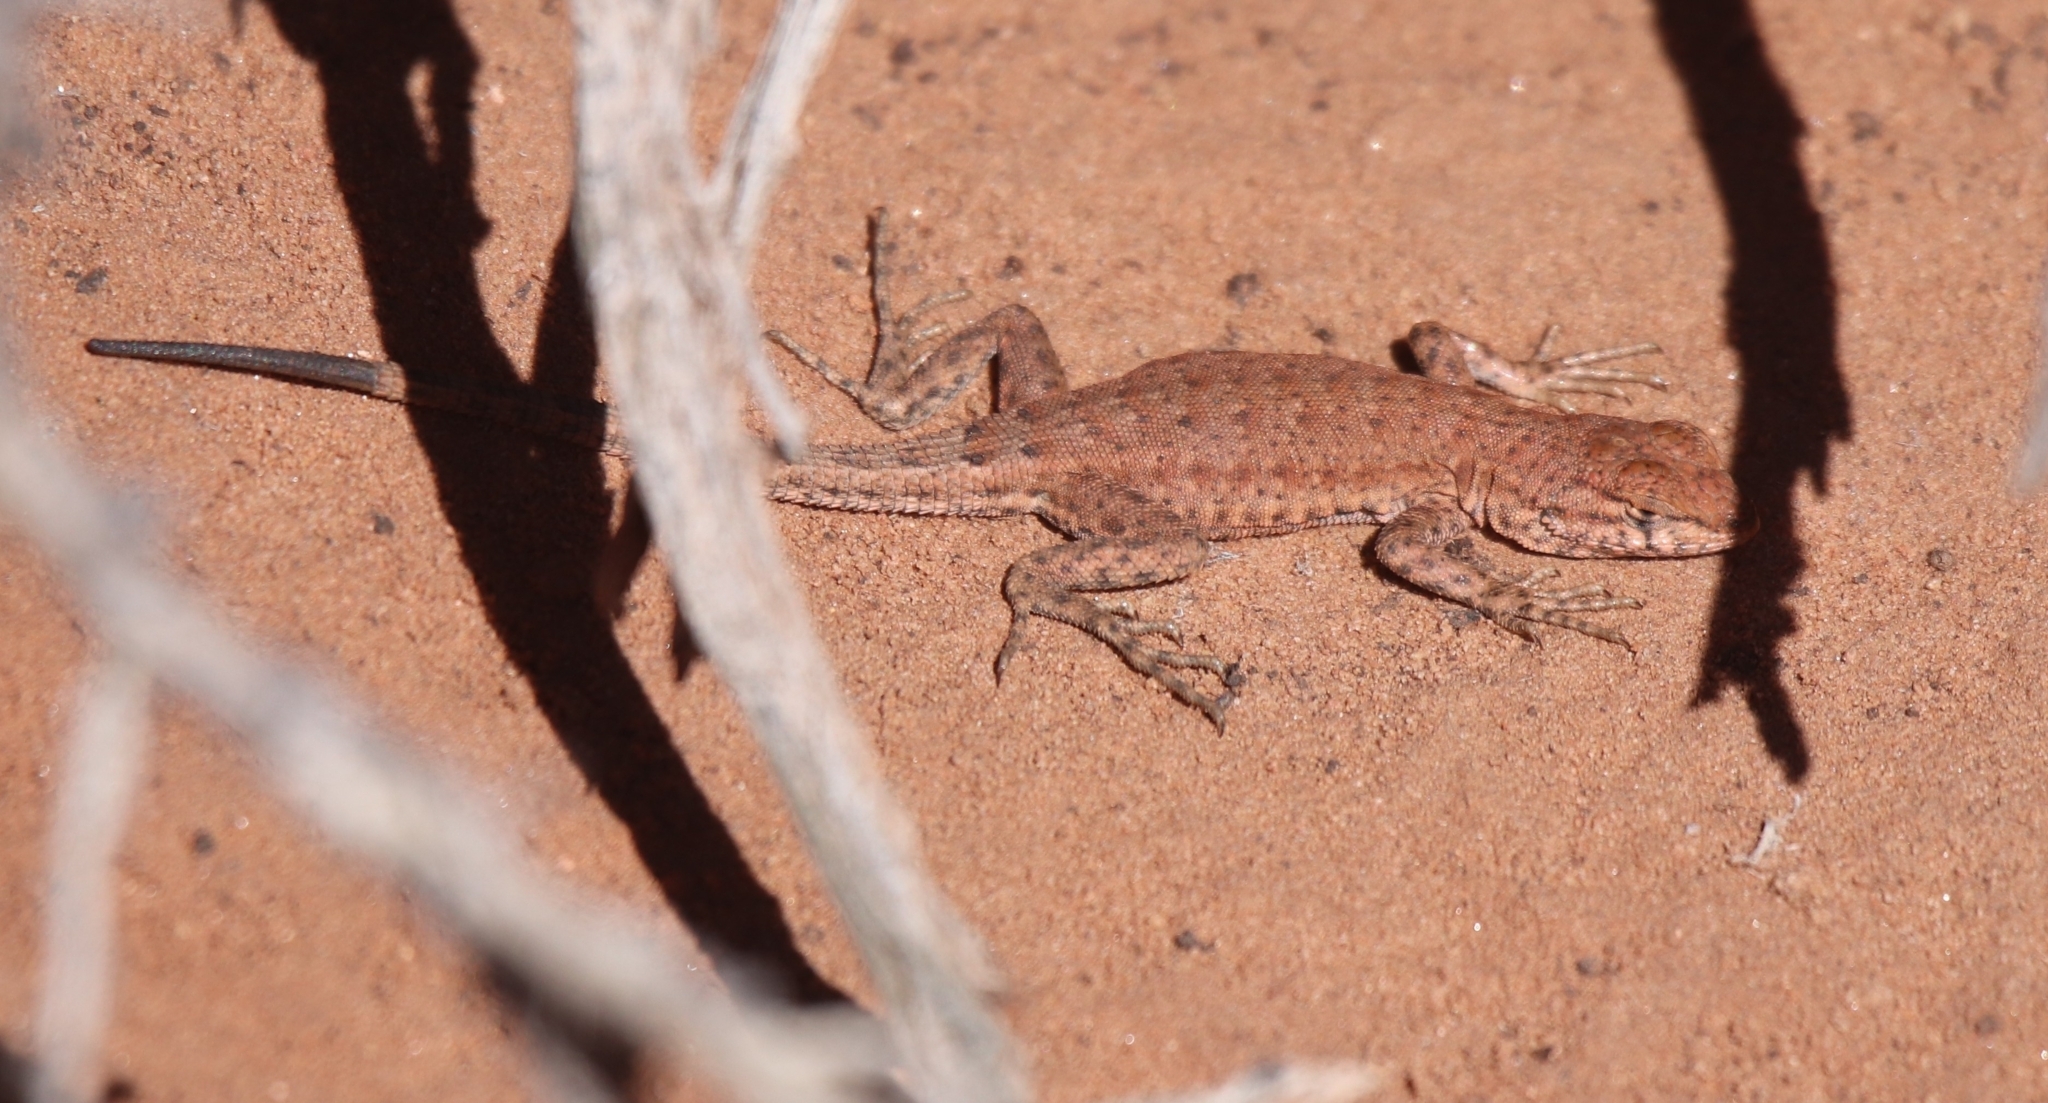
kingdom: Animalia
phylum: Chordata
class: Squamata
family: Phrynosomatidae
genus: Uta
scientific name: Uta stansburiana
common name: Side-blotched lizard
